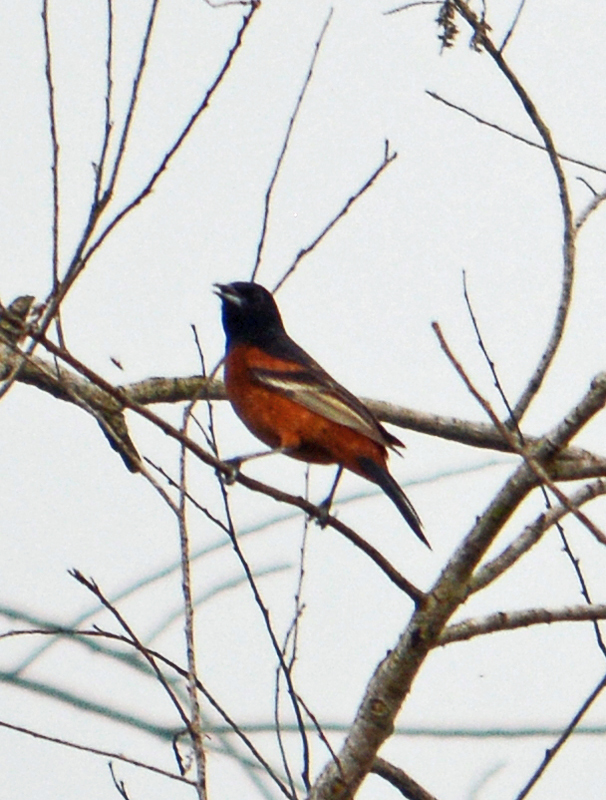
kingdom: Animalia
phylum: Chordata
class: Aves
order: Passeriformes
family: Icteridae
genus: Icterus
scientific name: Icterus spurius
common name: Orchard oriole
